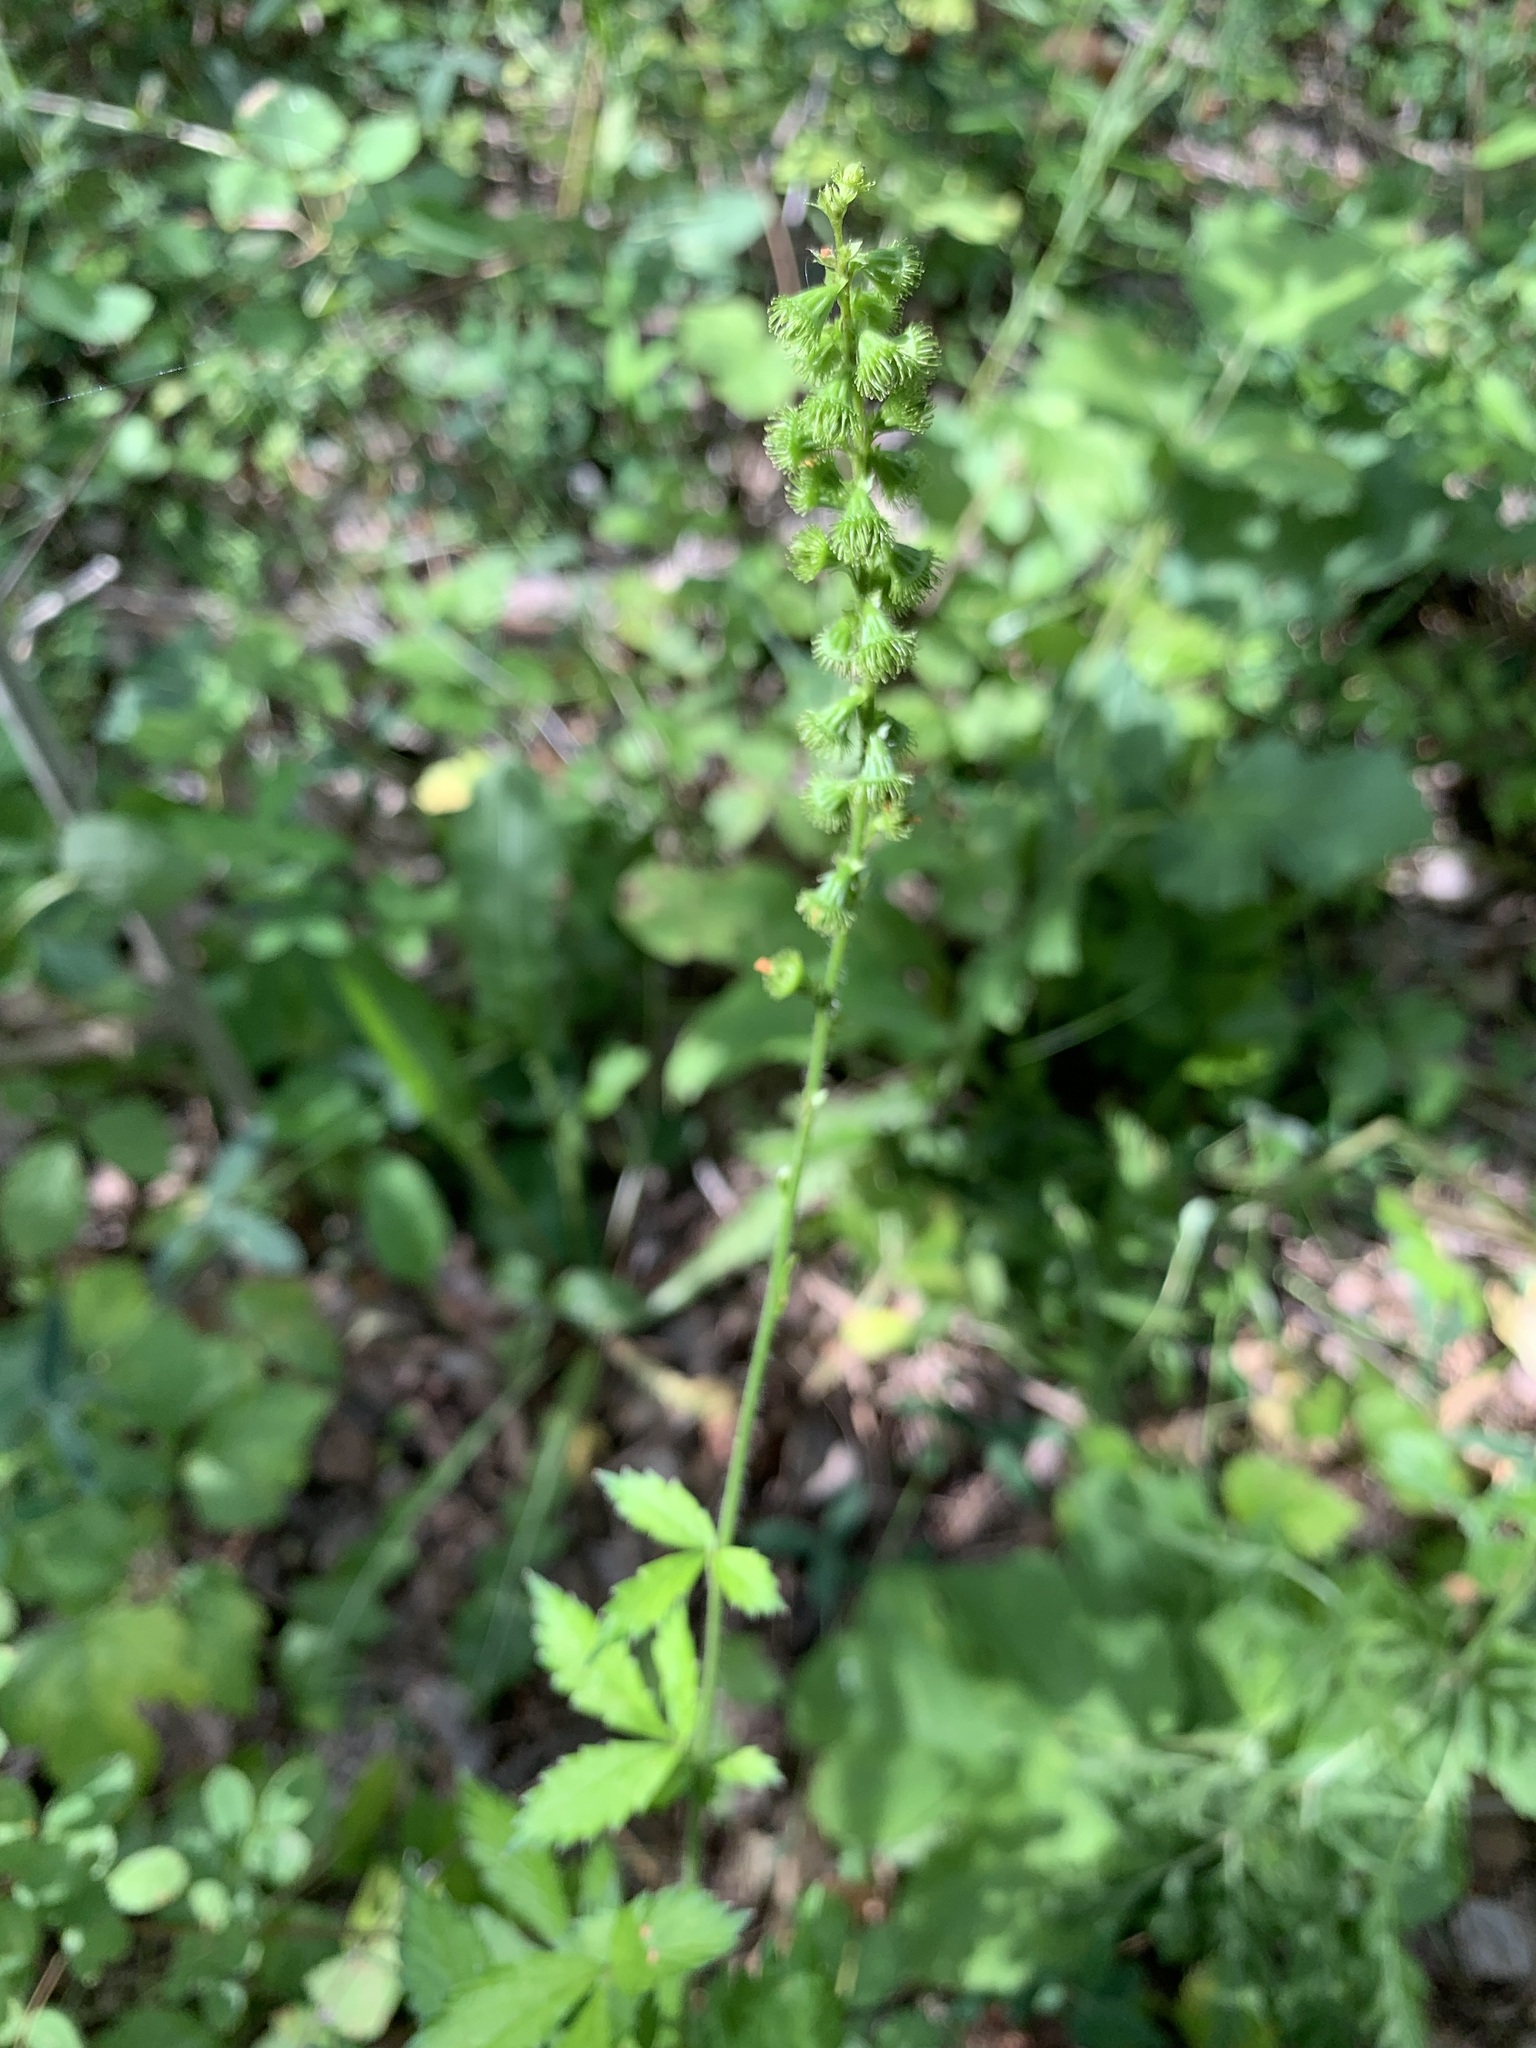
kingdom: Plantae
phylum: Tracheophyta
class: Magnoliopsida
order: Rosales
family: Rosaceae
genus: Agrimonia
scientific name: Agrimonia pilosa
